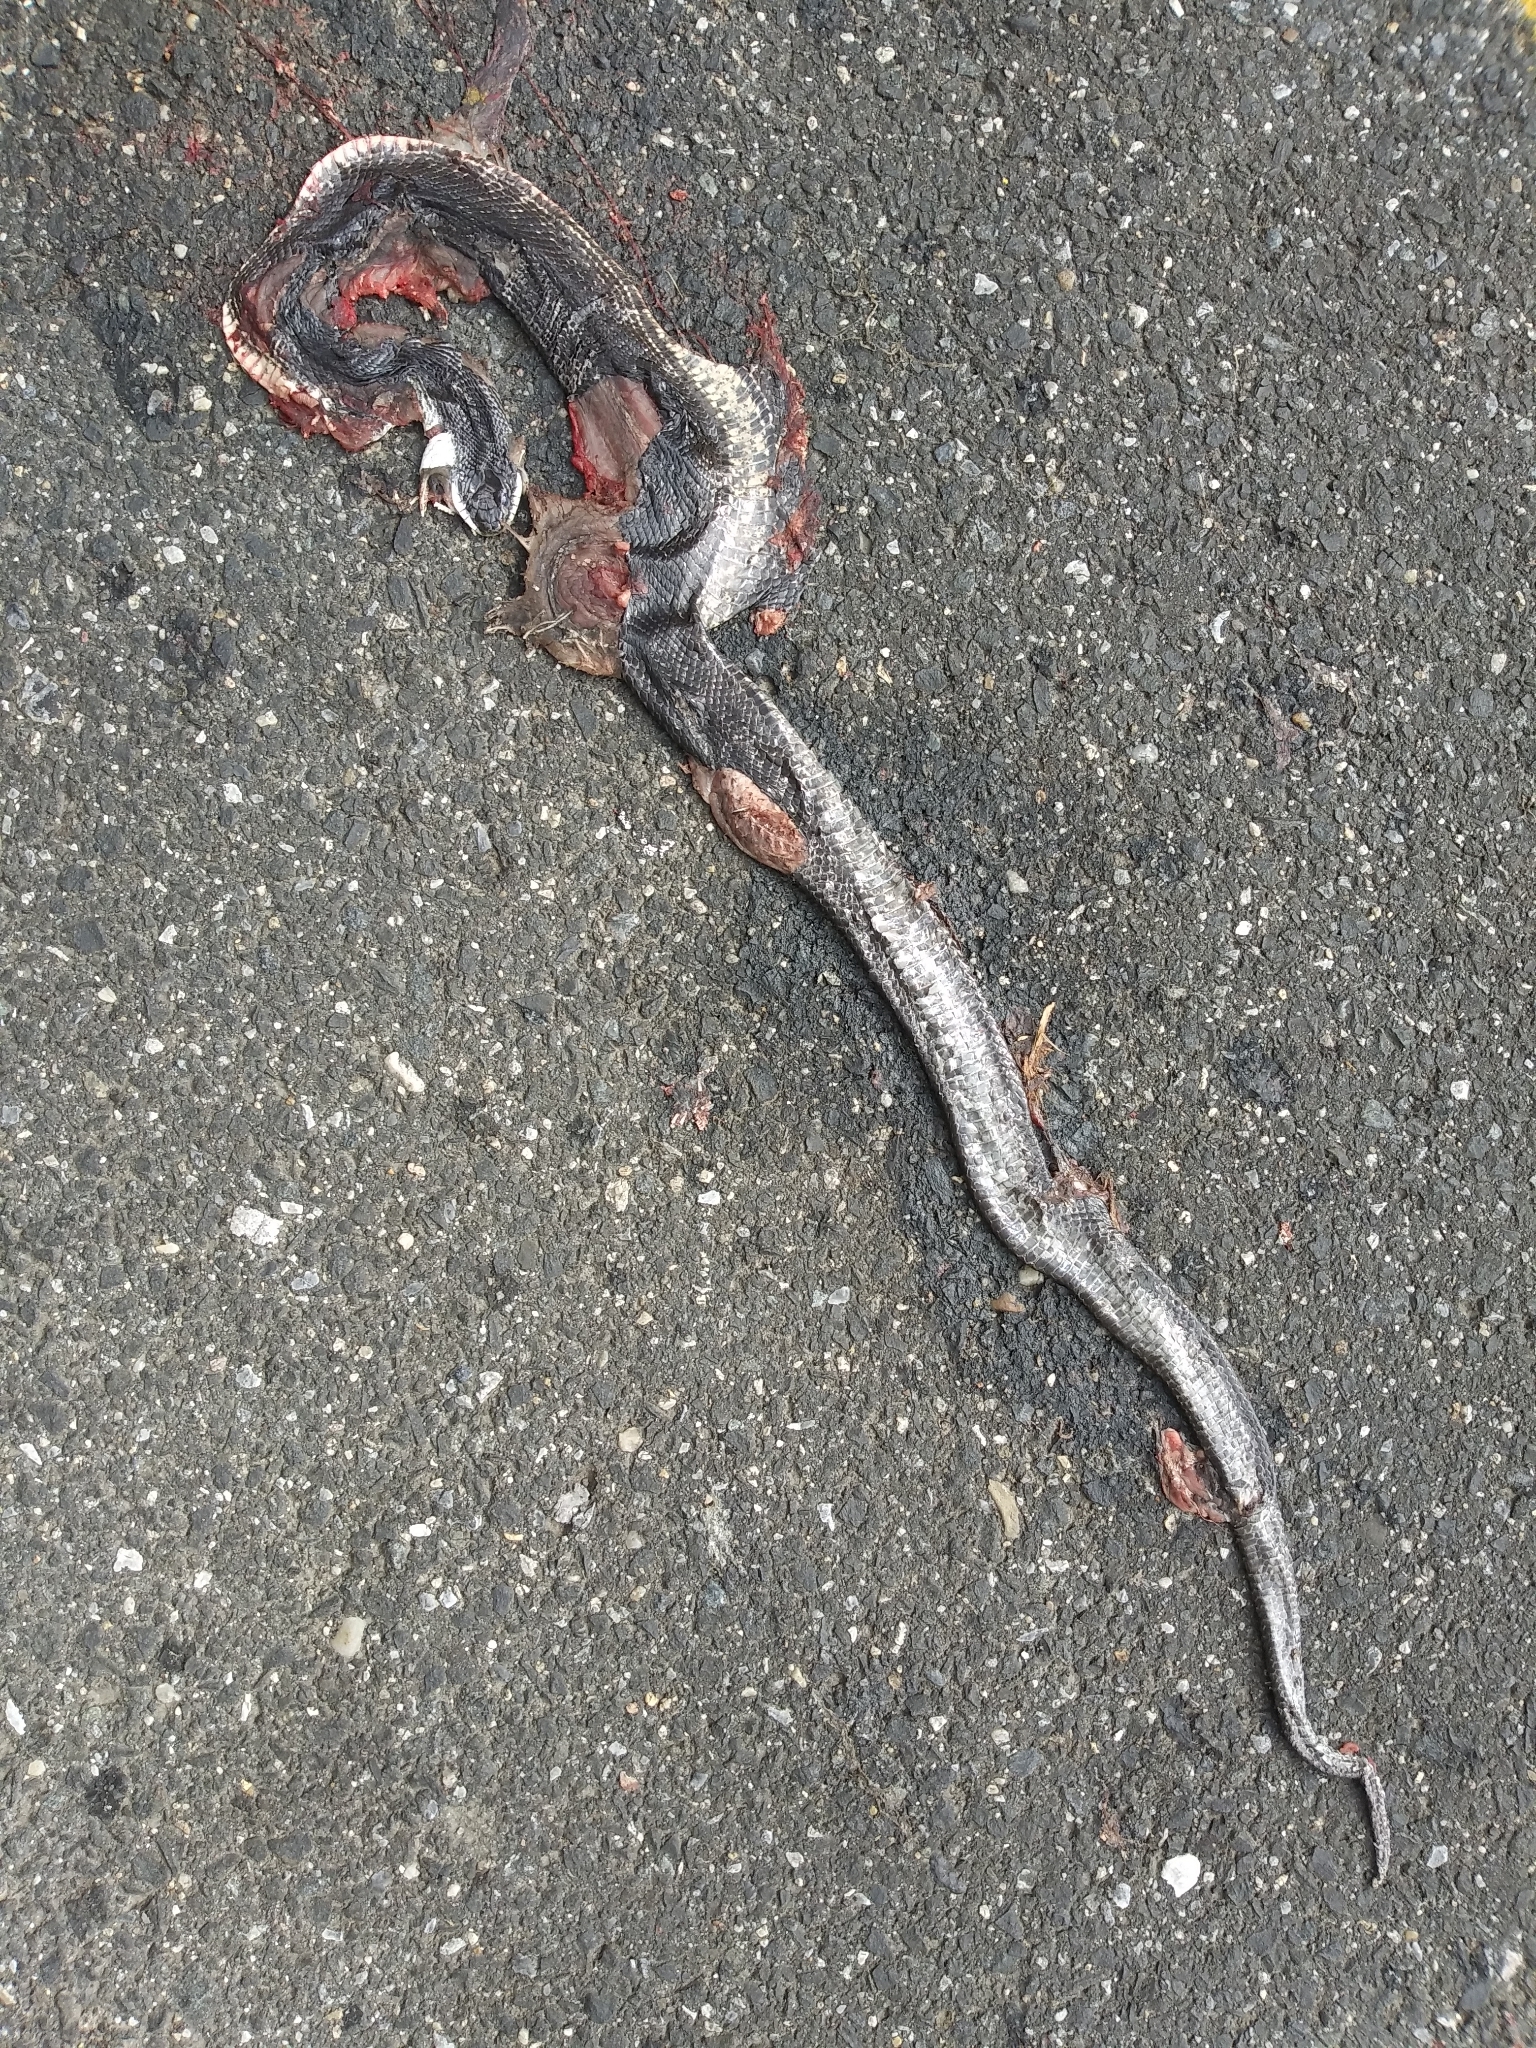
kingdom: Animalia
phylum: Chordata
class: Squamata
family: Colubridae
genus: Pantherophis
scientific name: Pantherophis
